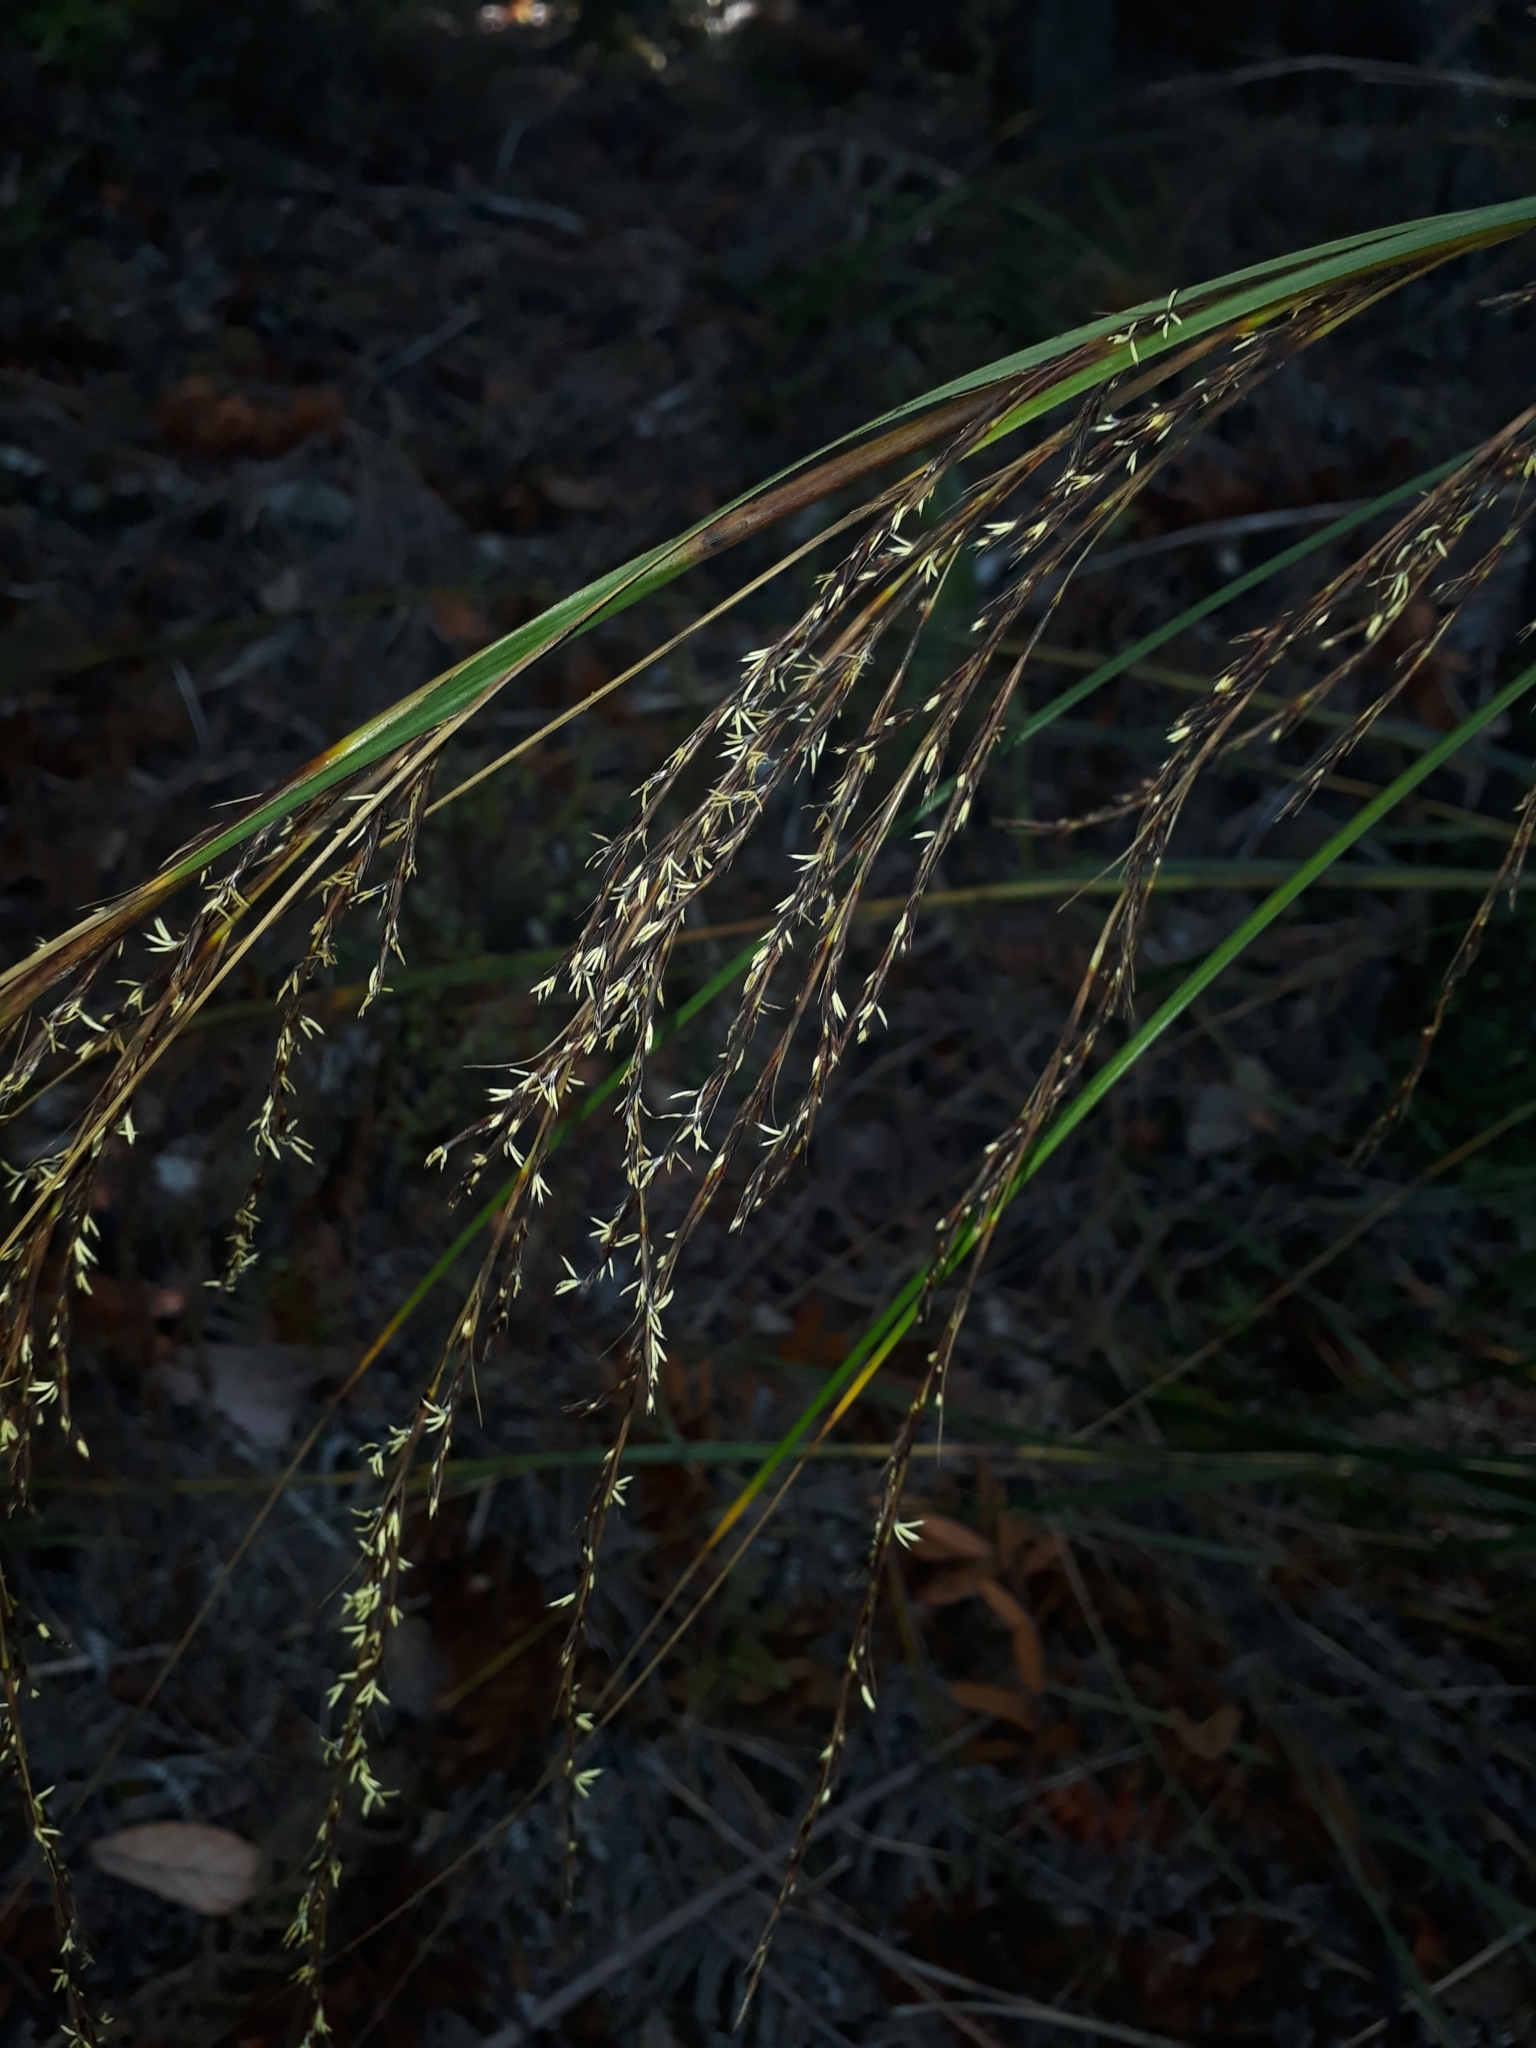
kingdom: Plantae
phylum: Tracheophyta
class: Liliopsida
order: Poales
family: Cyperaceae
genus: Gahnia
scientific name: Gahnia setifolia
